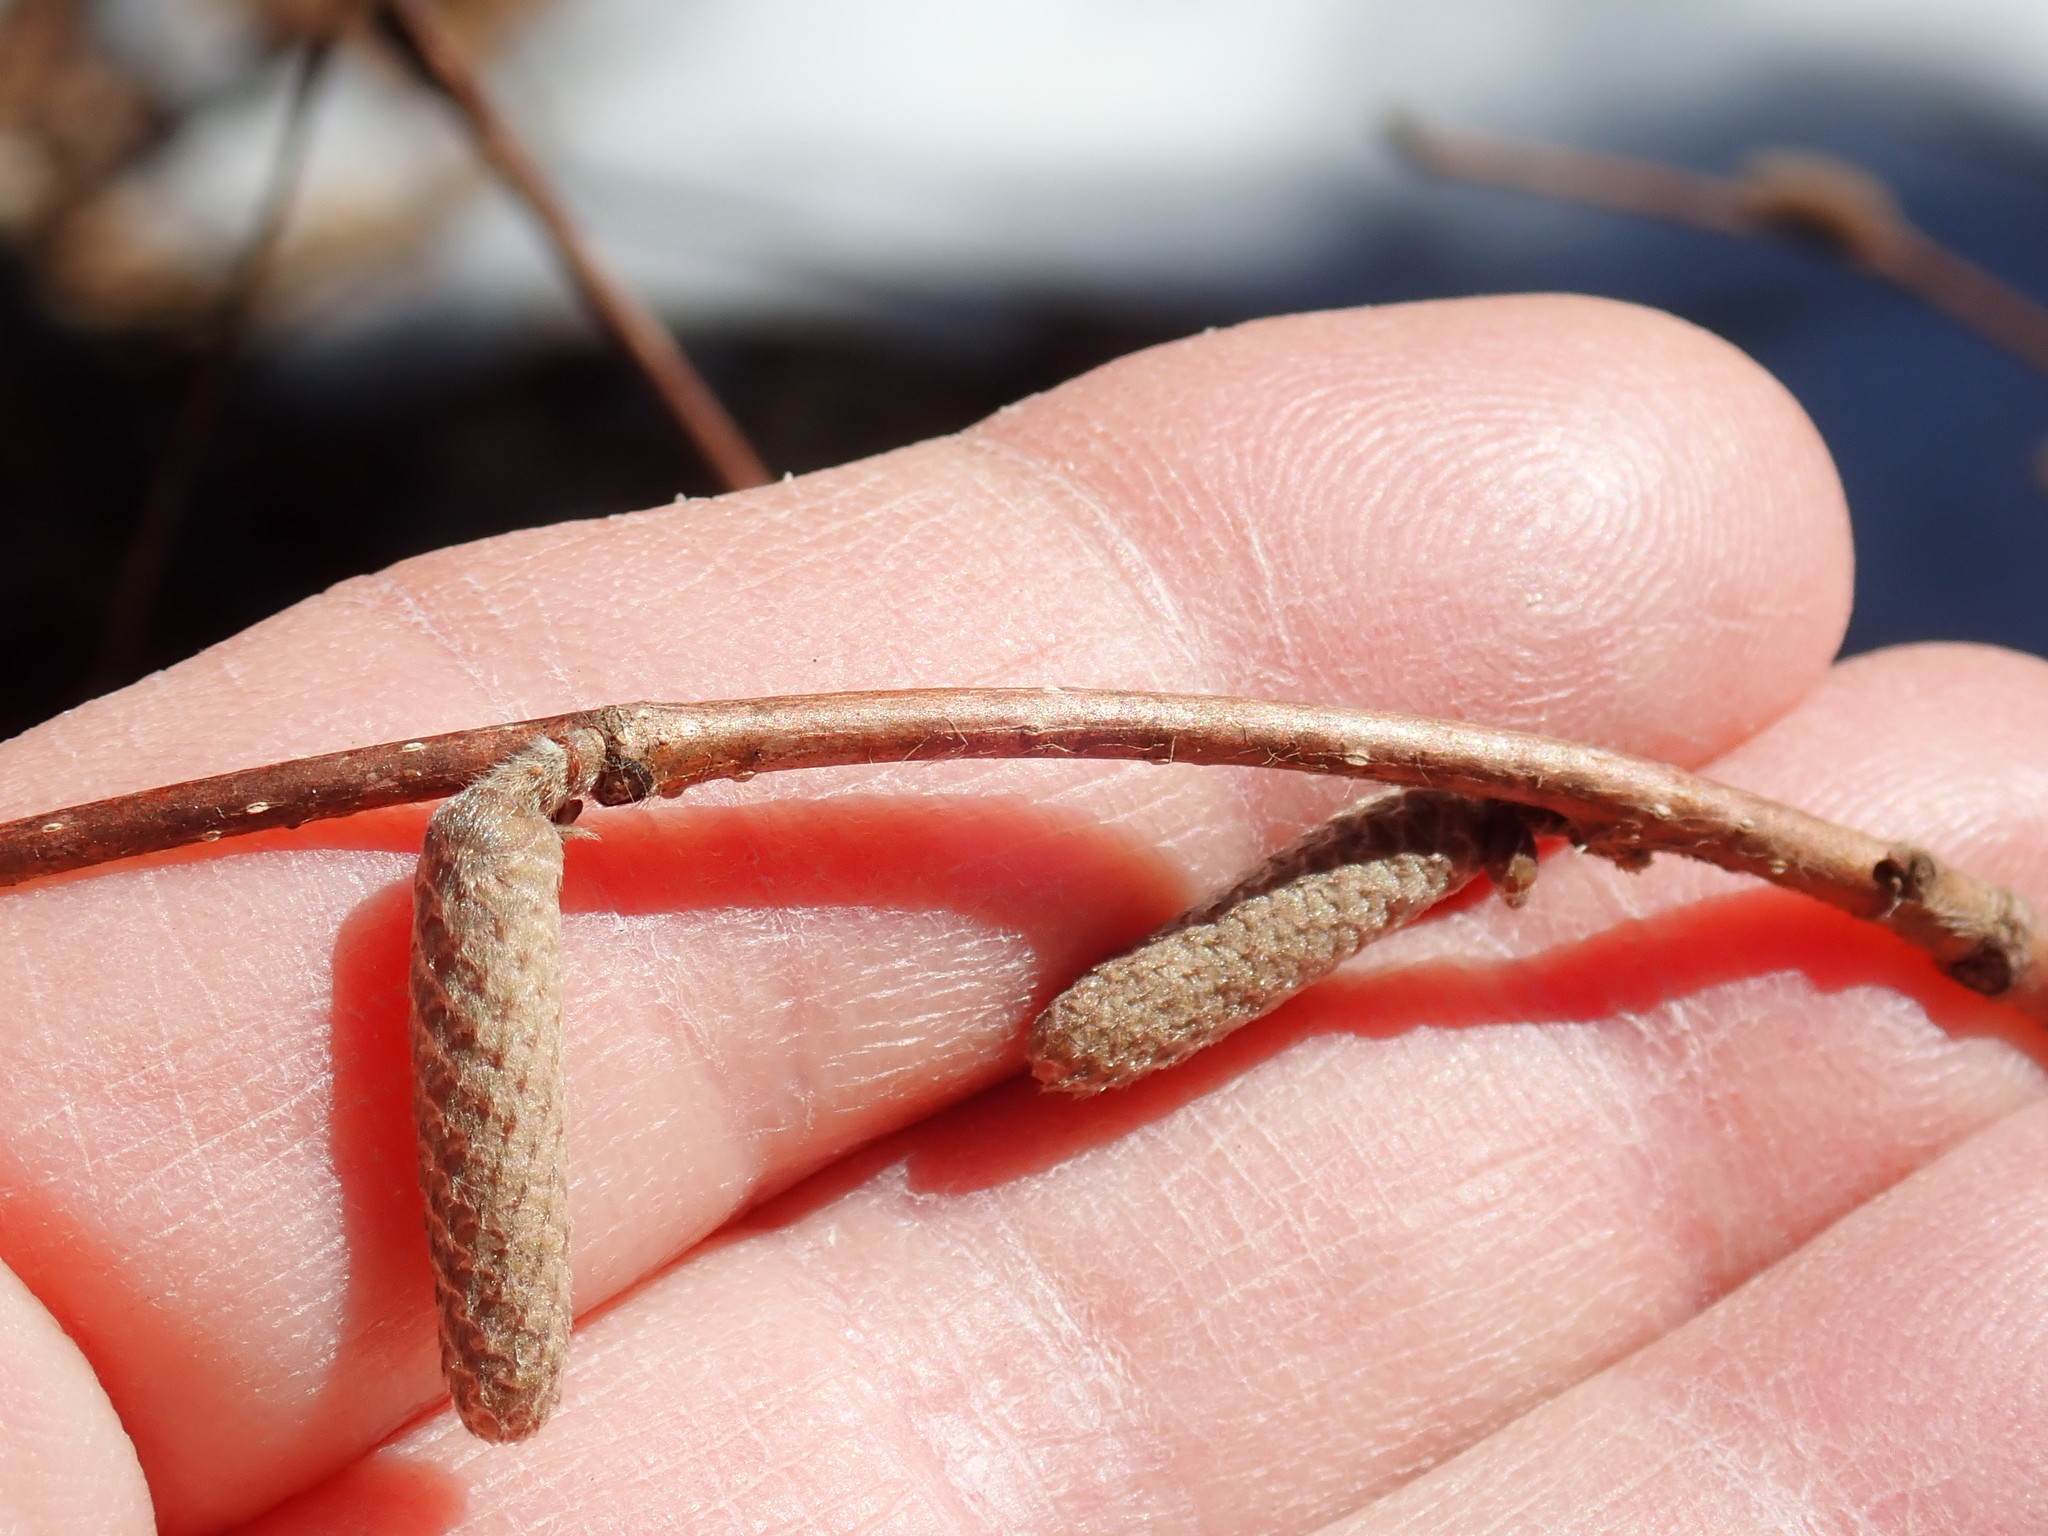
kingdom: Plantae
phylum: Tracheophyta
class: Magnoliopsida
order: Fagales
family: Betulaceae
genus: Corylus
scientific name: Corylus cornuta
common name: Beaked hazel
